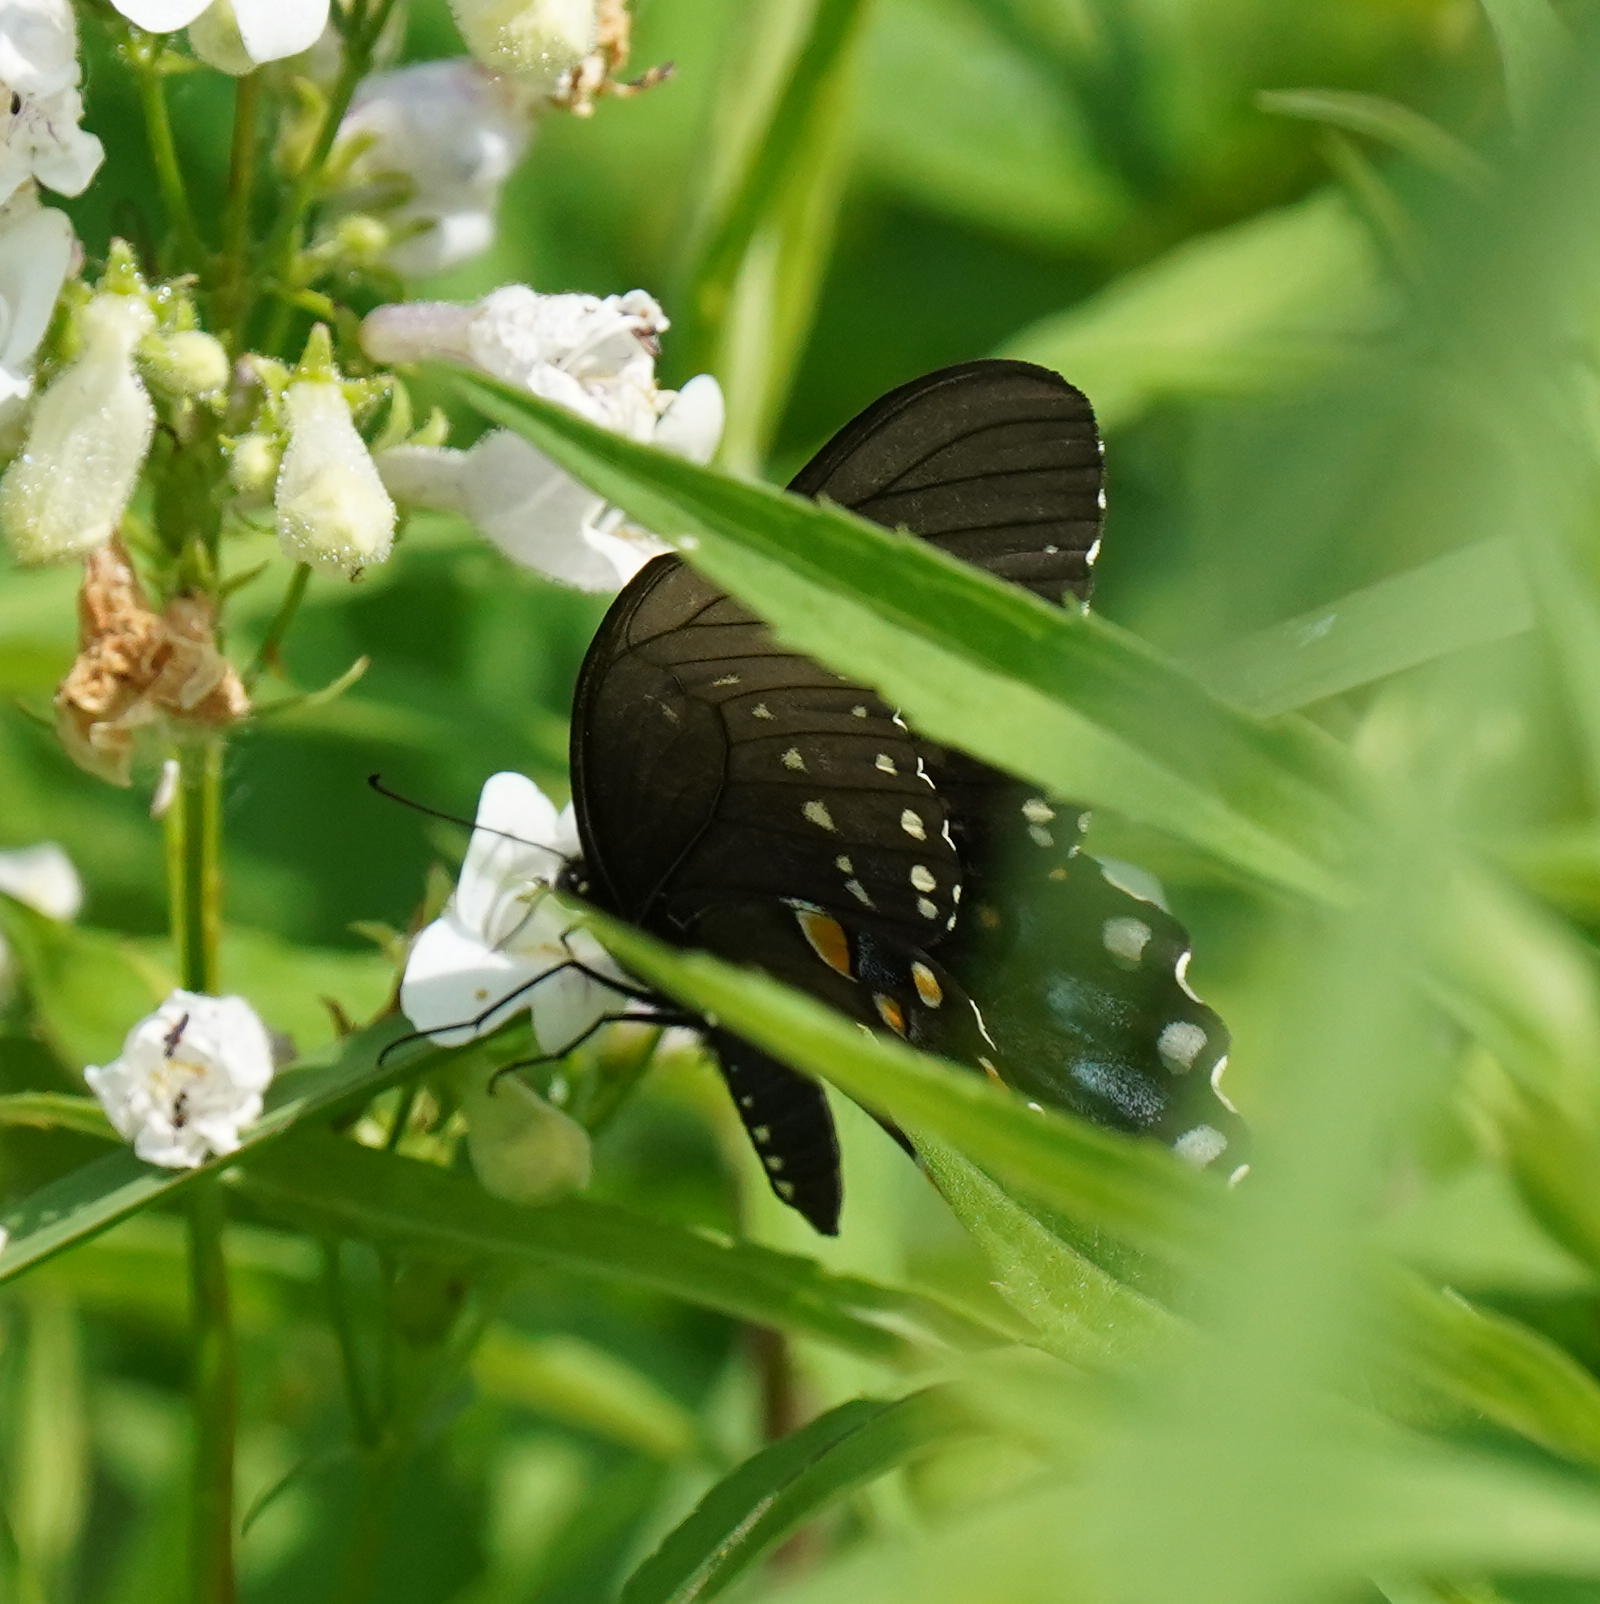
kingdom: Animalia
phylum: Arthropoda
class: Insecta
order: Lepidoptera
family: Papilionidae
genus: Papilio
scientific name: Papilio troilus
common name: Spicebush swallowtail
